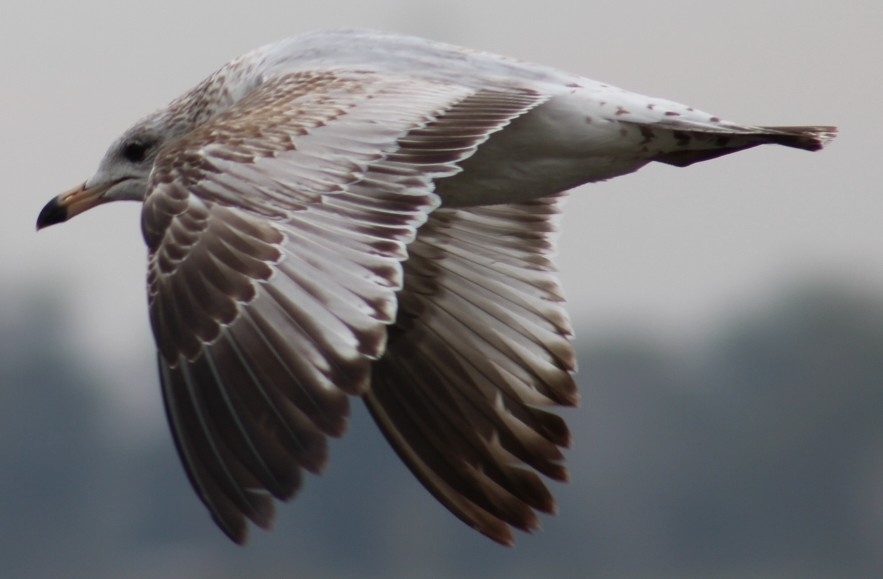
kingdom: Animalia
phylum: Chordata
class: Aves
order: Charadriiformes
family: Laridae
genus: Larus
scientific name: Larus delawarensis
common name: Ring-billed gull
